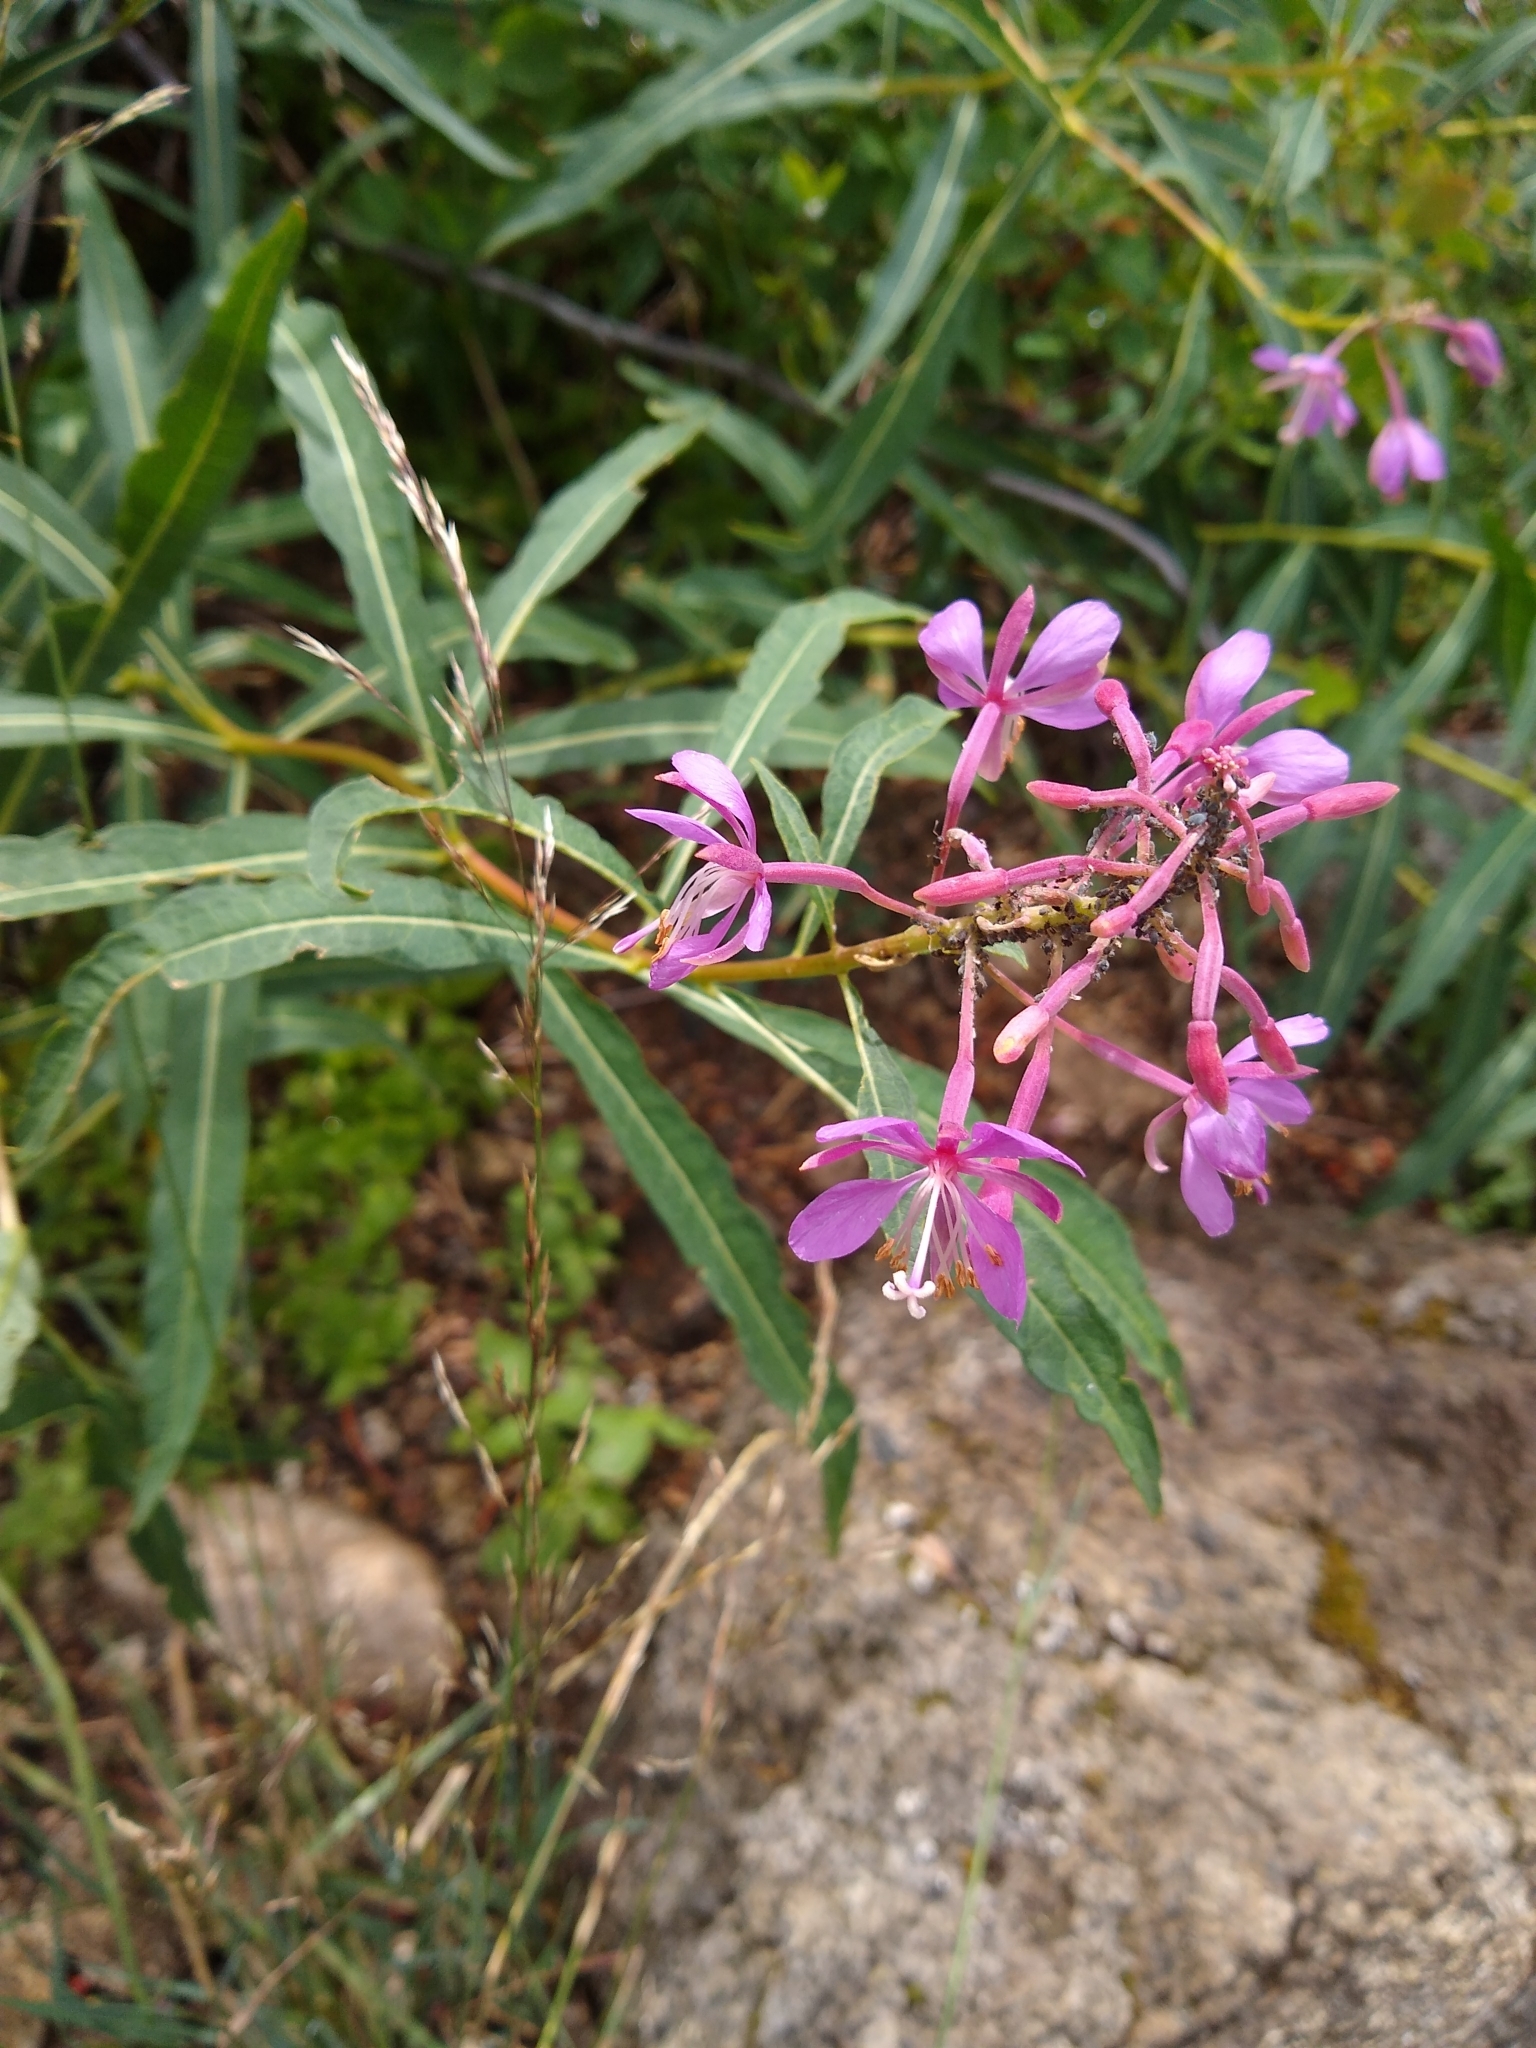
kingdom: Plantae
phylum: Tracheophyta
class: Magnoliopsida
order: Myrtales
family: Onagraceae
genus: Chamaenerion
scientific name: Chamaenerion angustifolium
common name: Fireweed
